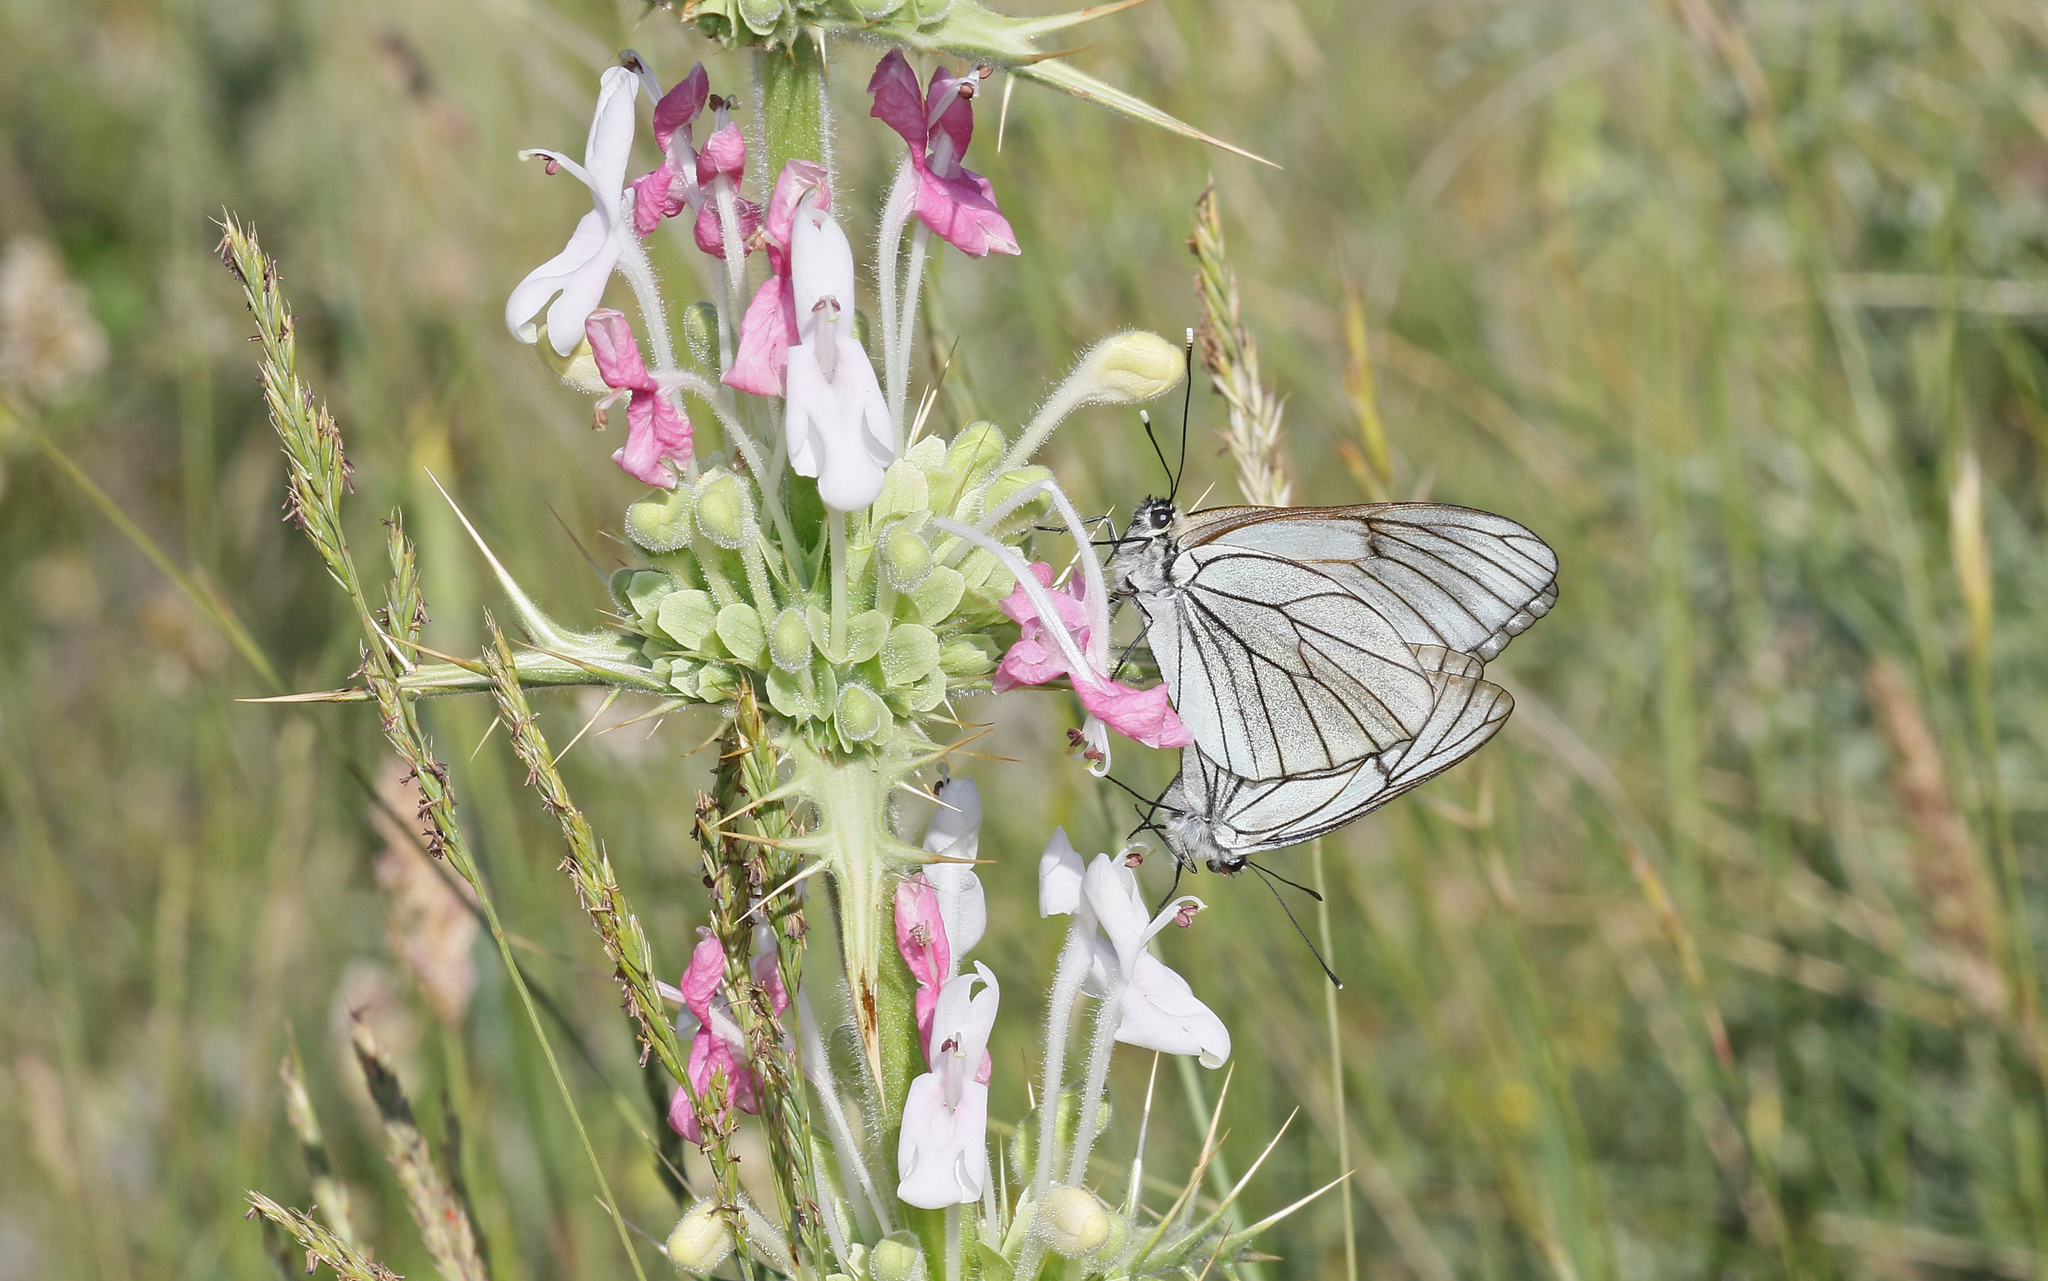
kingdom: Animalia
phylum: Arthropoda
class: Insecta
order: Lepidoptera
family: Pieridae
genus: Aporia
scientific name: Aporia crataegi
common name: Black-veined white
